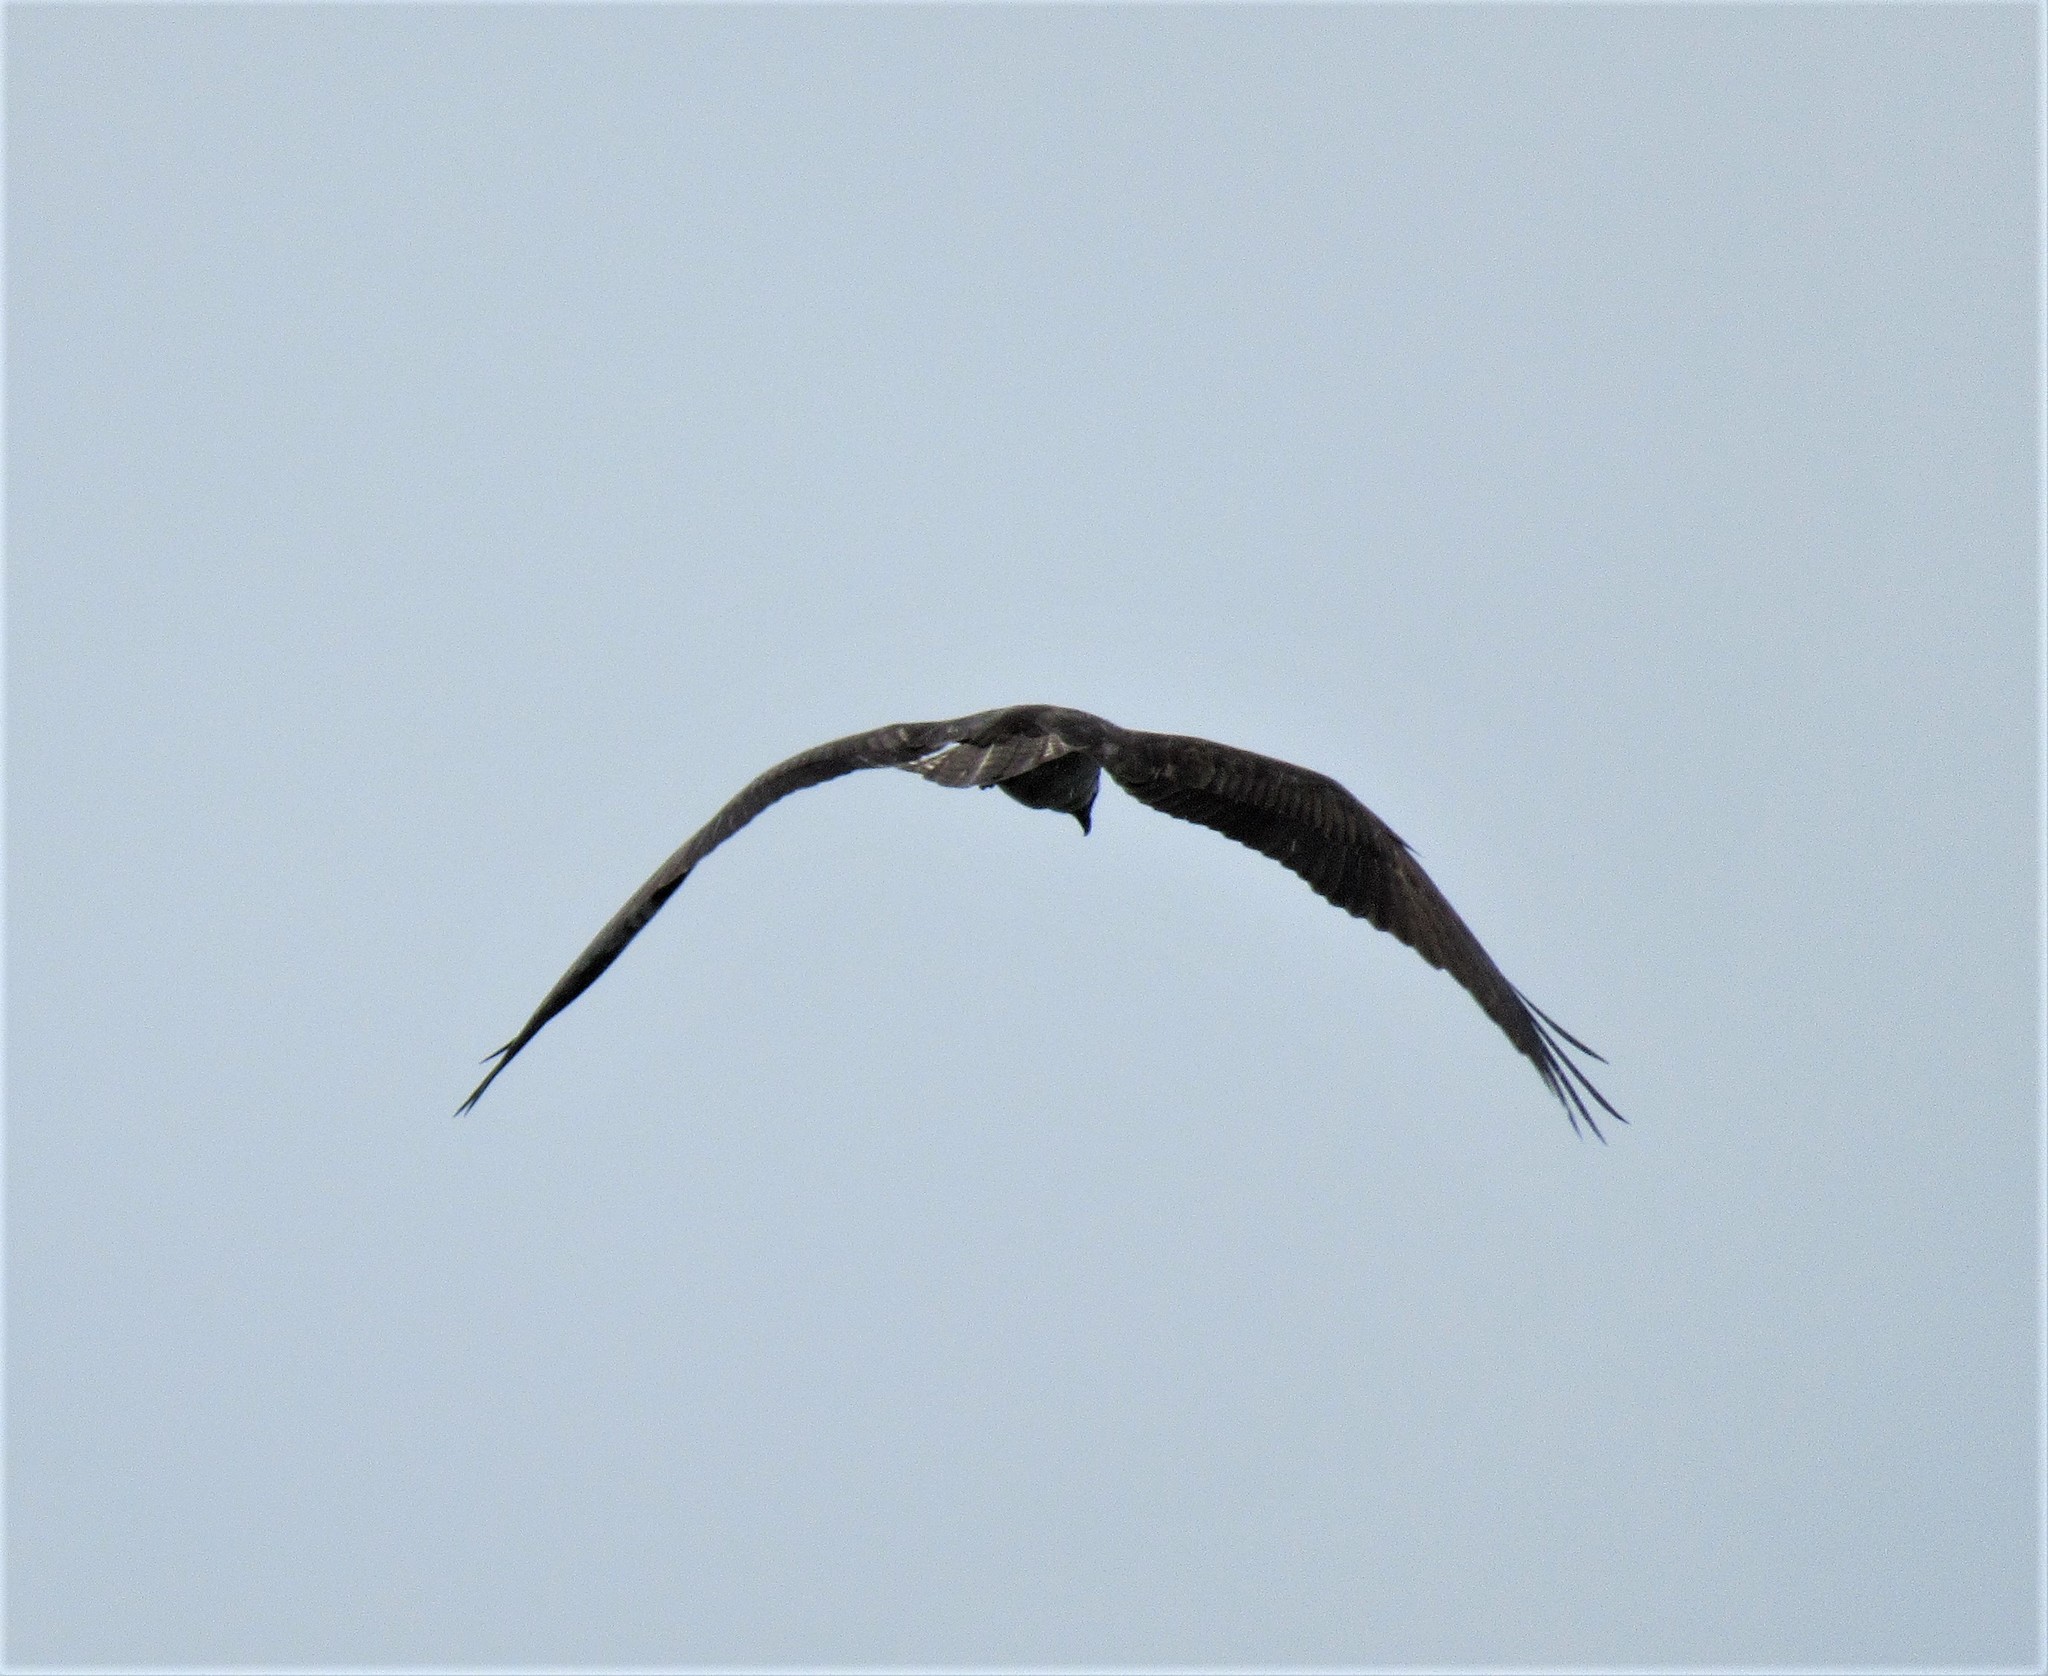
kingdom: Animalia
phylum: Chordata
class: Aves
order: Accipitriformes
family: Pandionidae
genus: Pandion
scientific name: Pandion haliaetus
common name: Osprey
